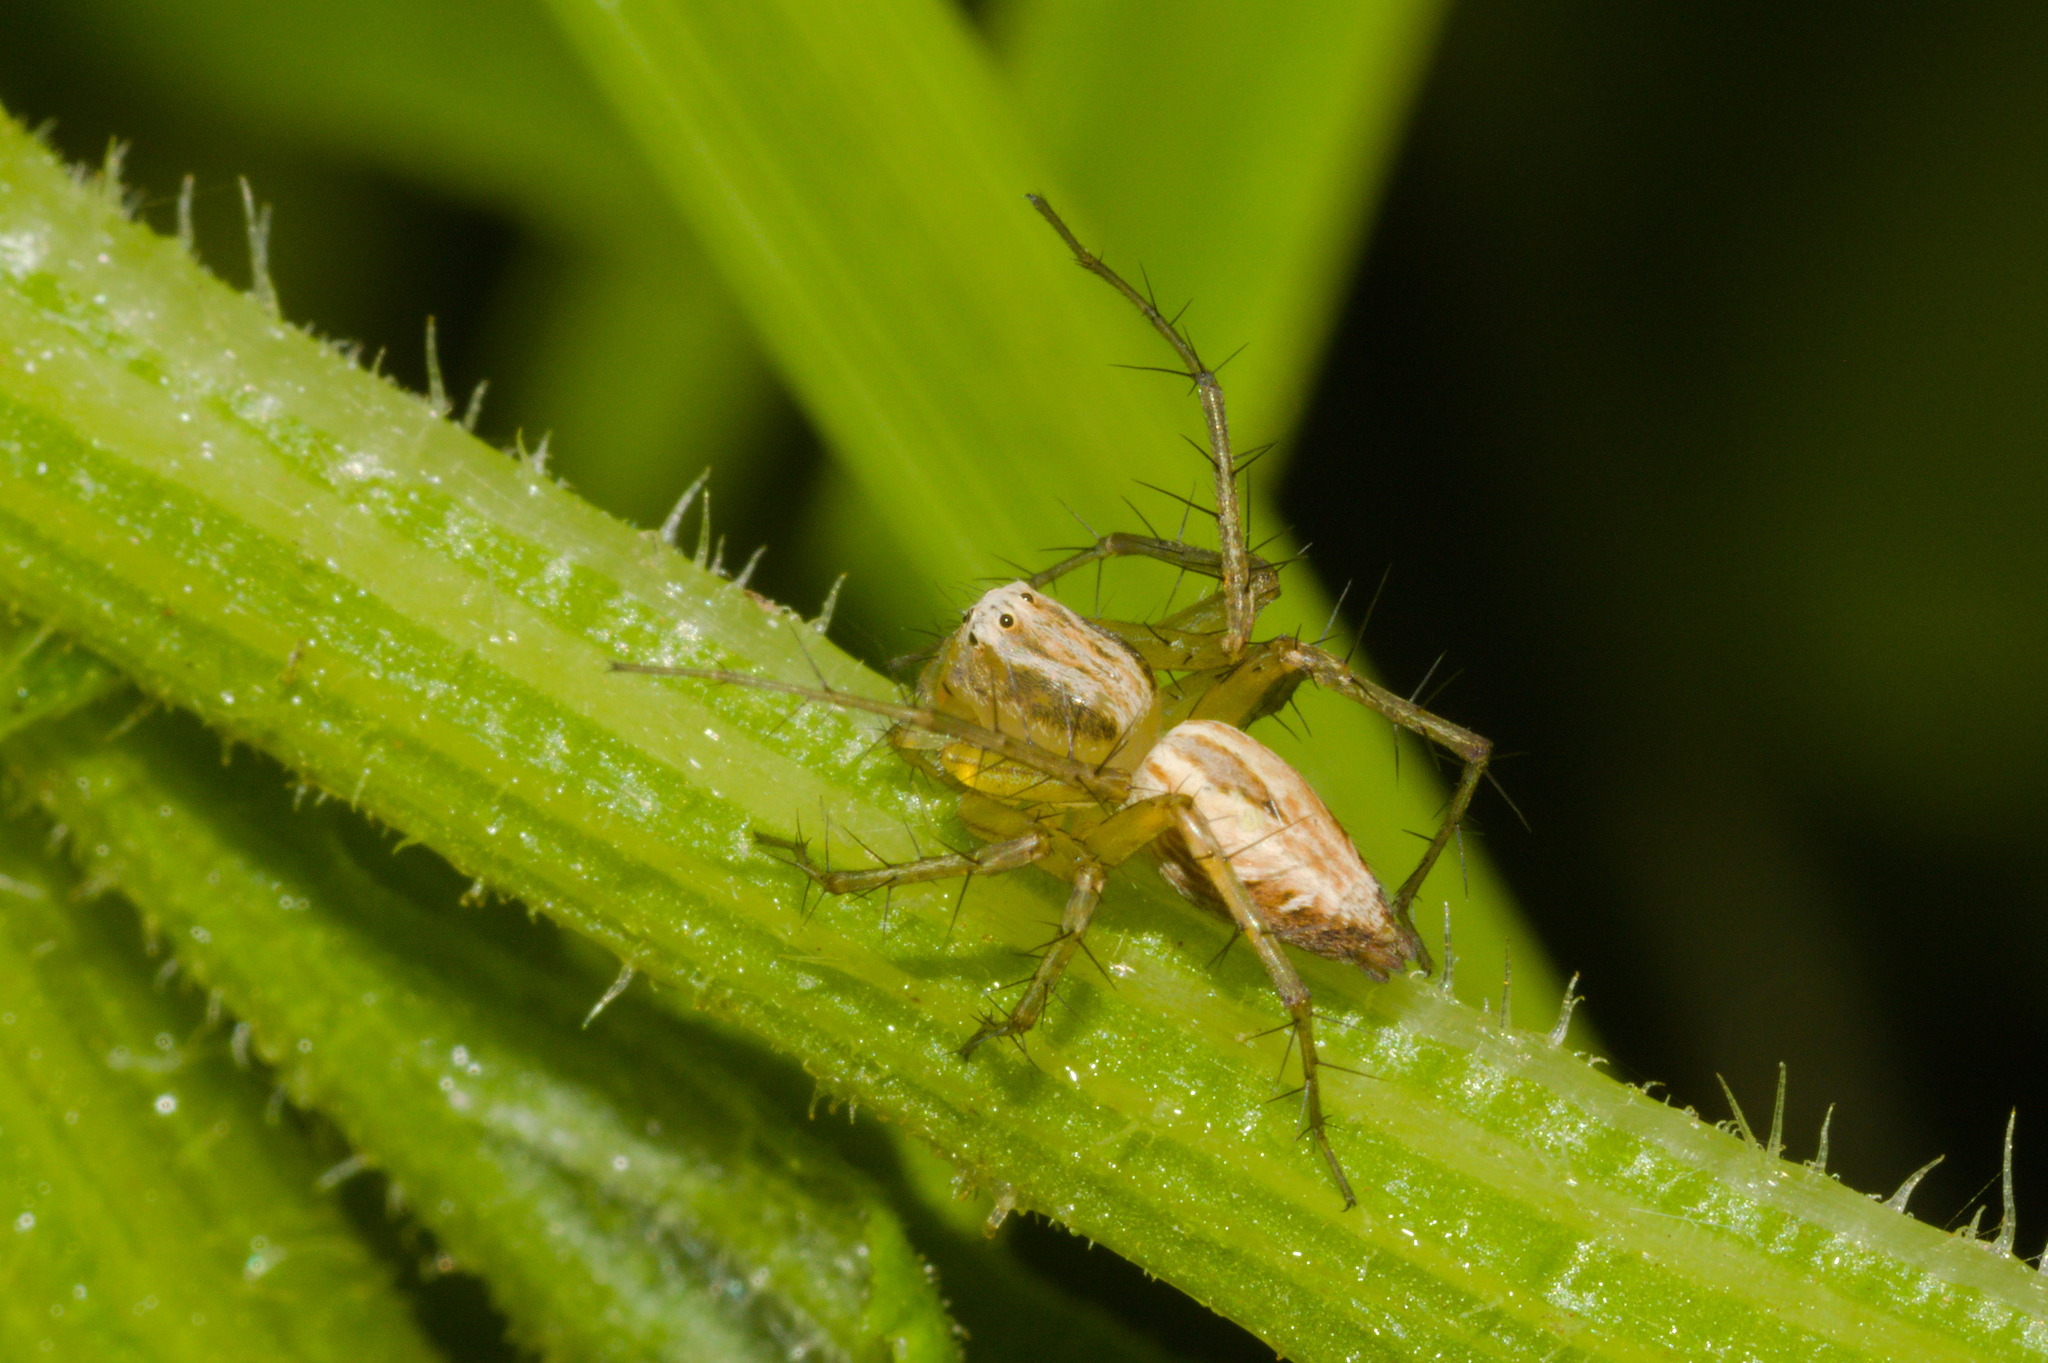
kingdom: Animalia
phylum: Arthropoda
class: Arachnida
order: Araneae
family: Oxyopidae
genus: Oxyopes
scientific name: Oxyopes salticus
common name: Lynx spiders
